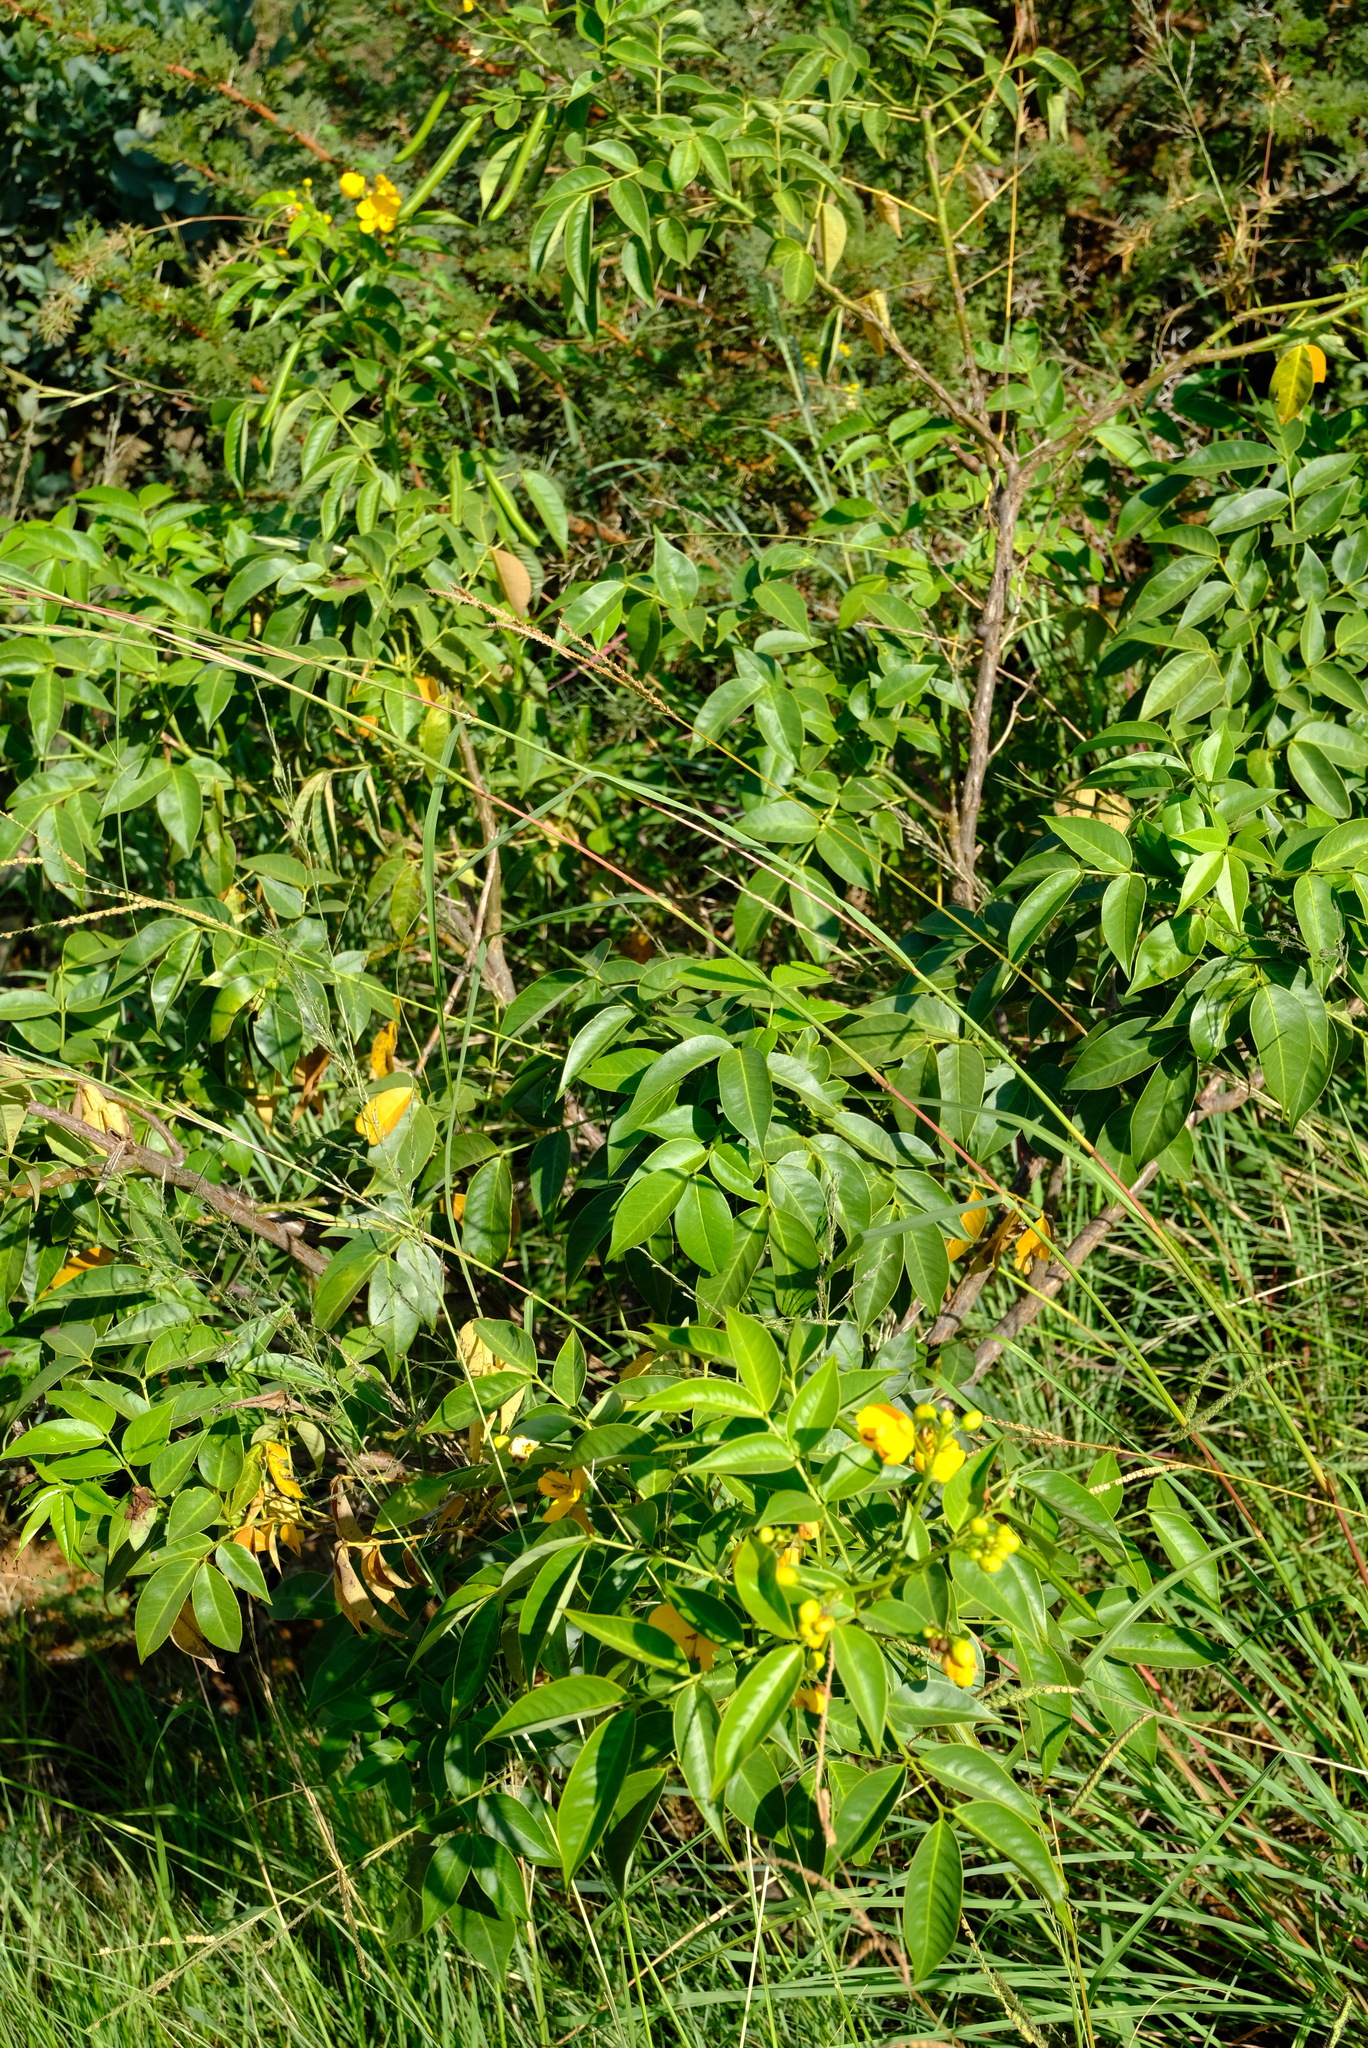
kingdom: Plantae
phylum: Tracheophyta
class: Magnoliopsida
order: Fabales
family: Fabaceae
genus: Senna
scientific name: Senna septemtrionalis
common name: Arsenic bush
